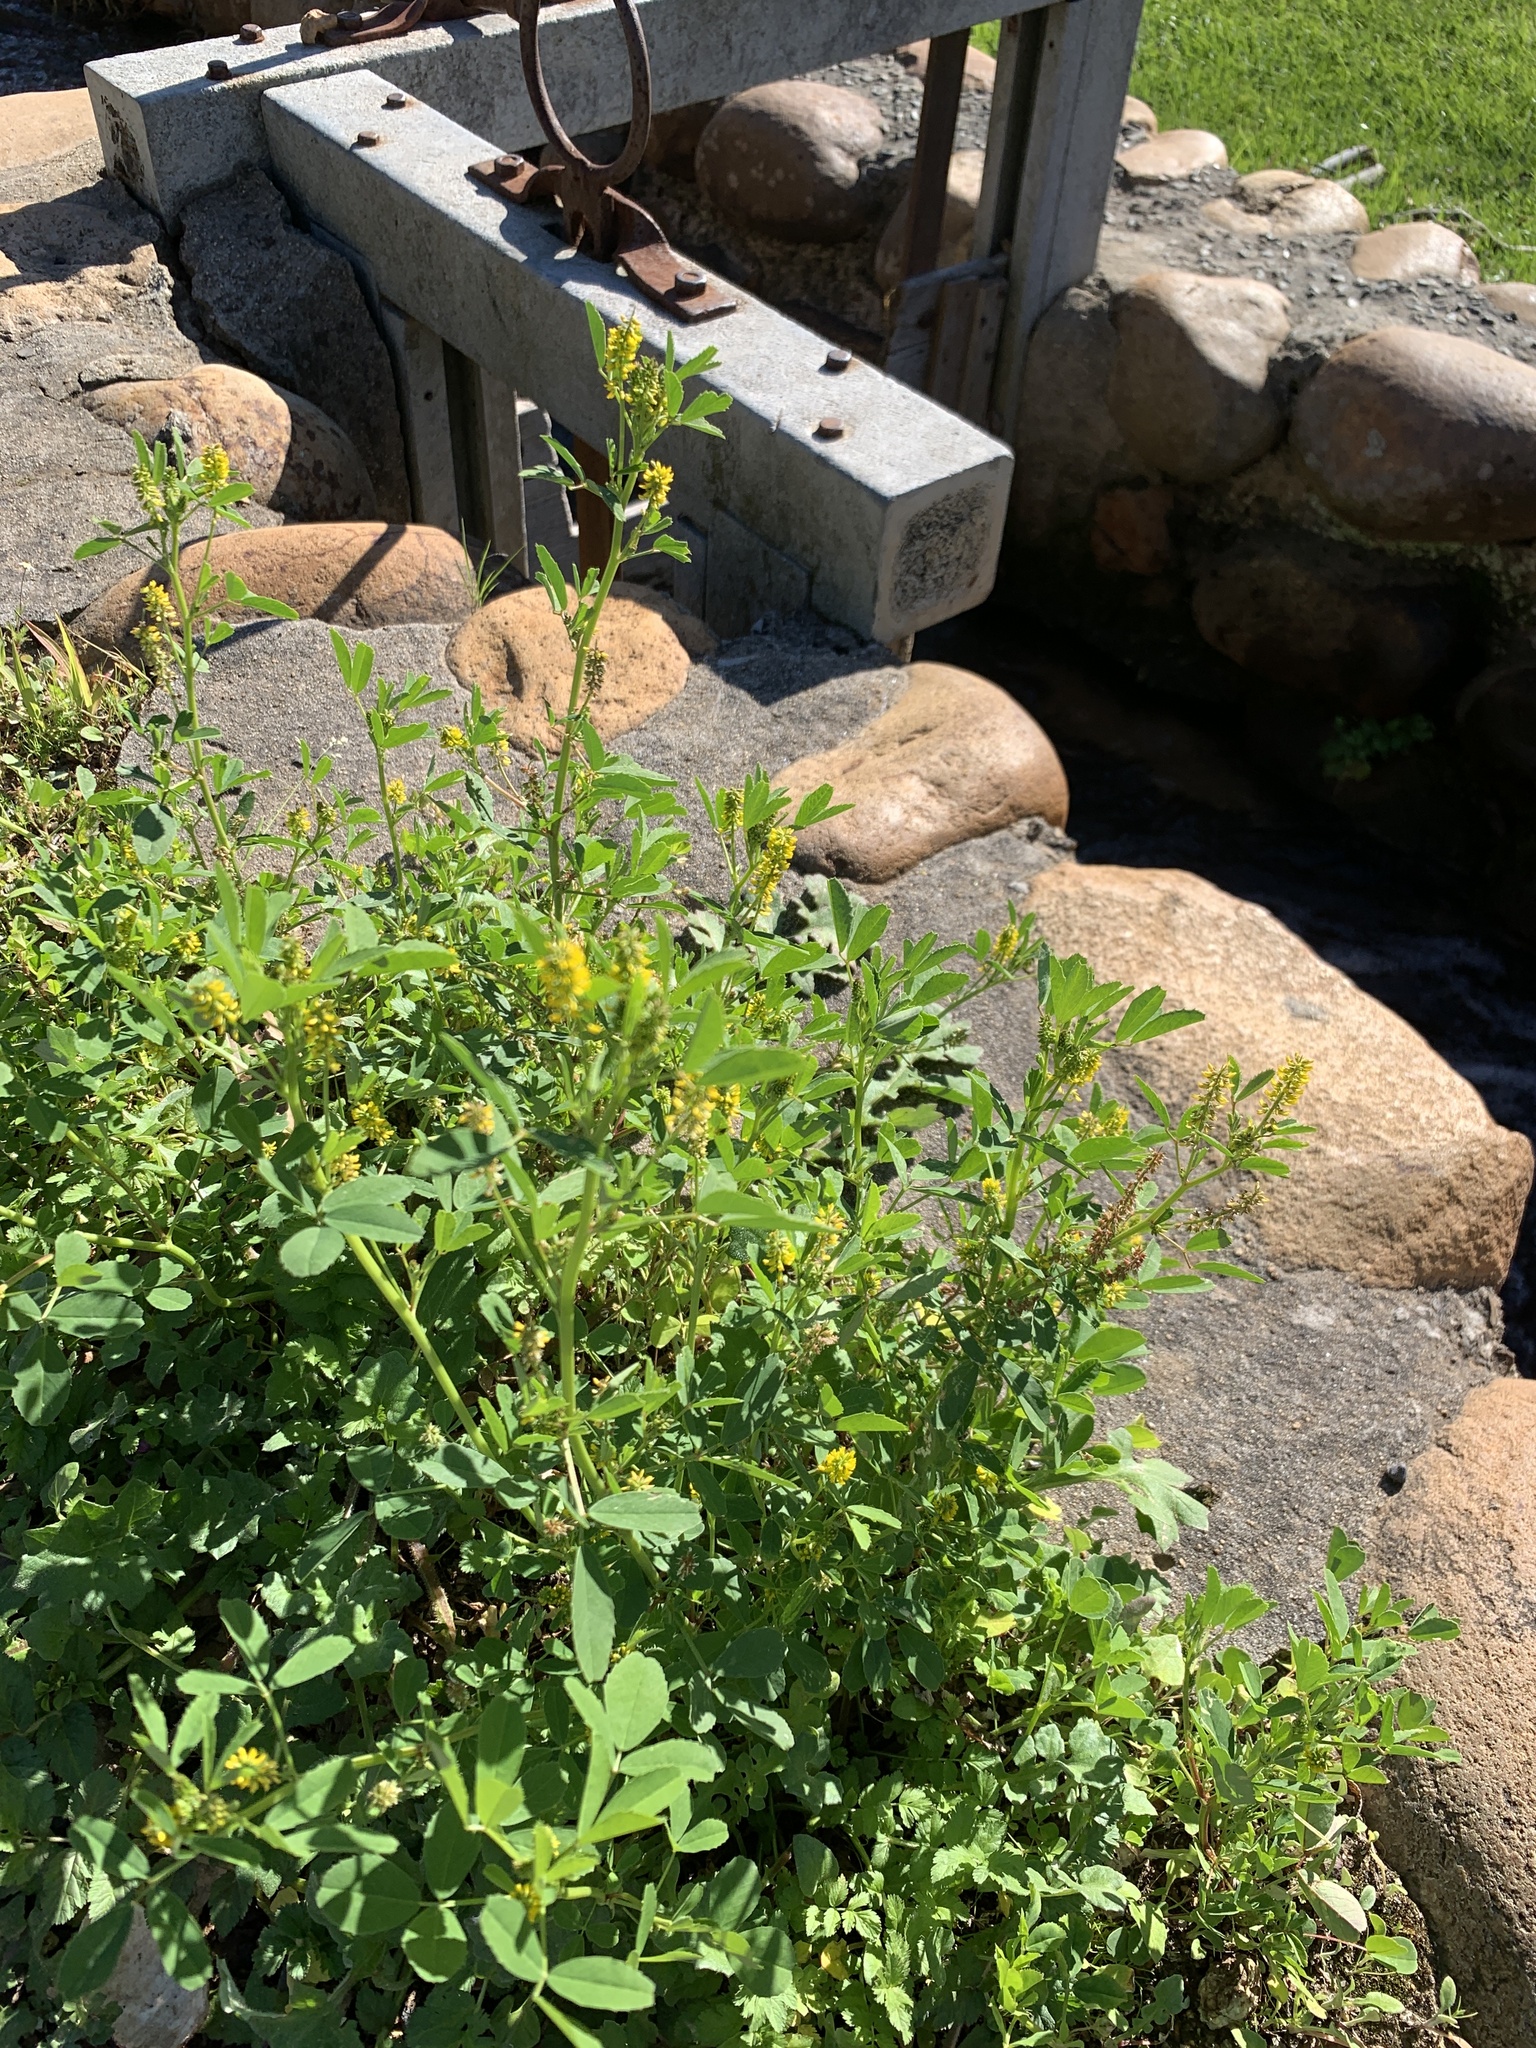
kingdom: Plantae
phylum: Tracheophyta
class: Magnoliopsida
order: Fabales
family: Fabaceae
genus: Melilotus
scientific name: Melilotus indicus
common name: Small melilot
